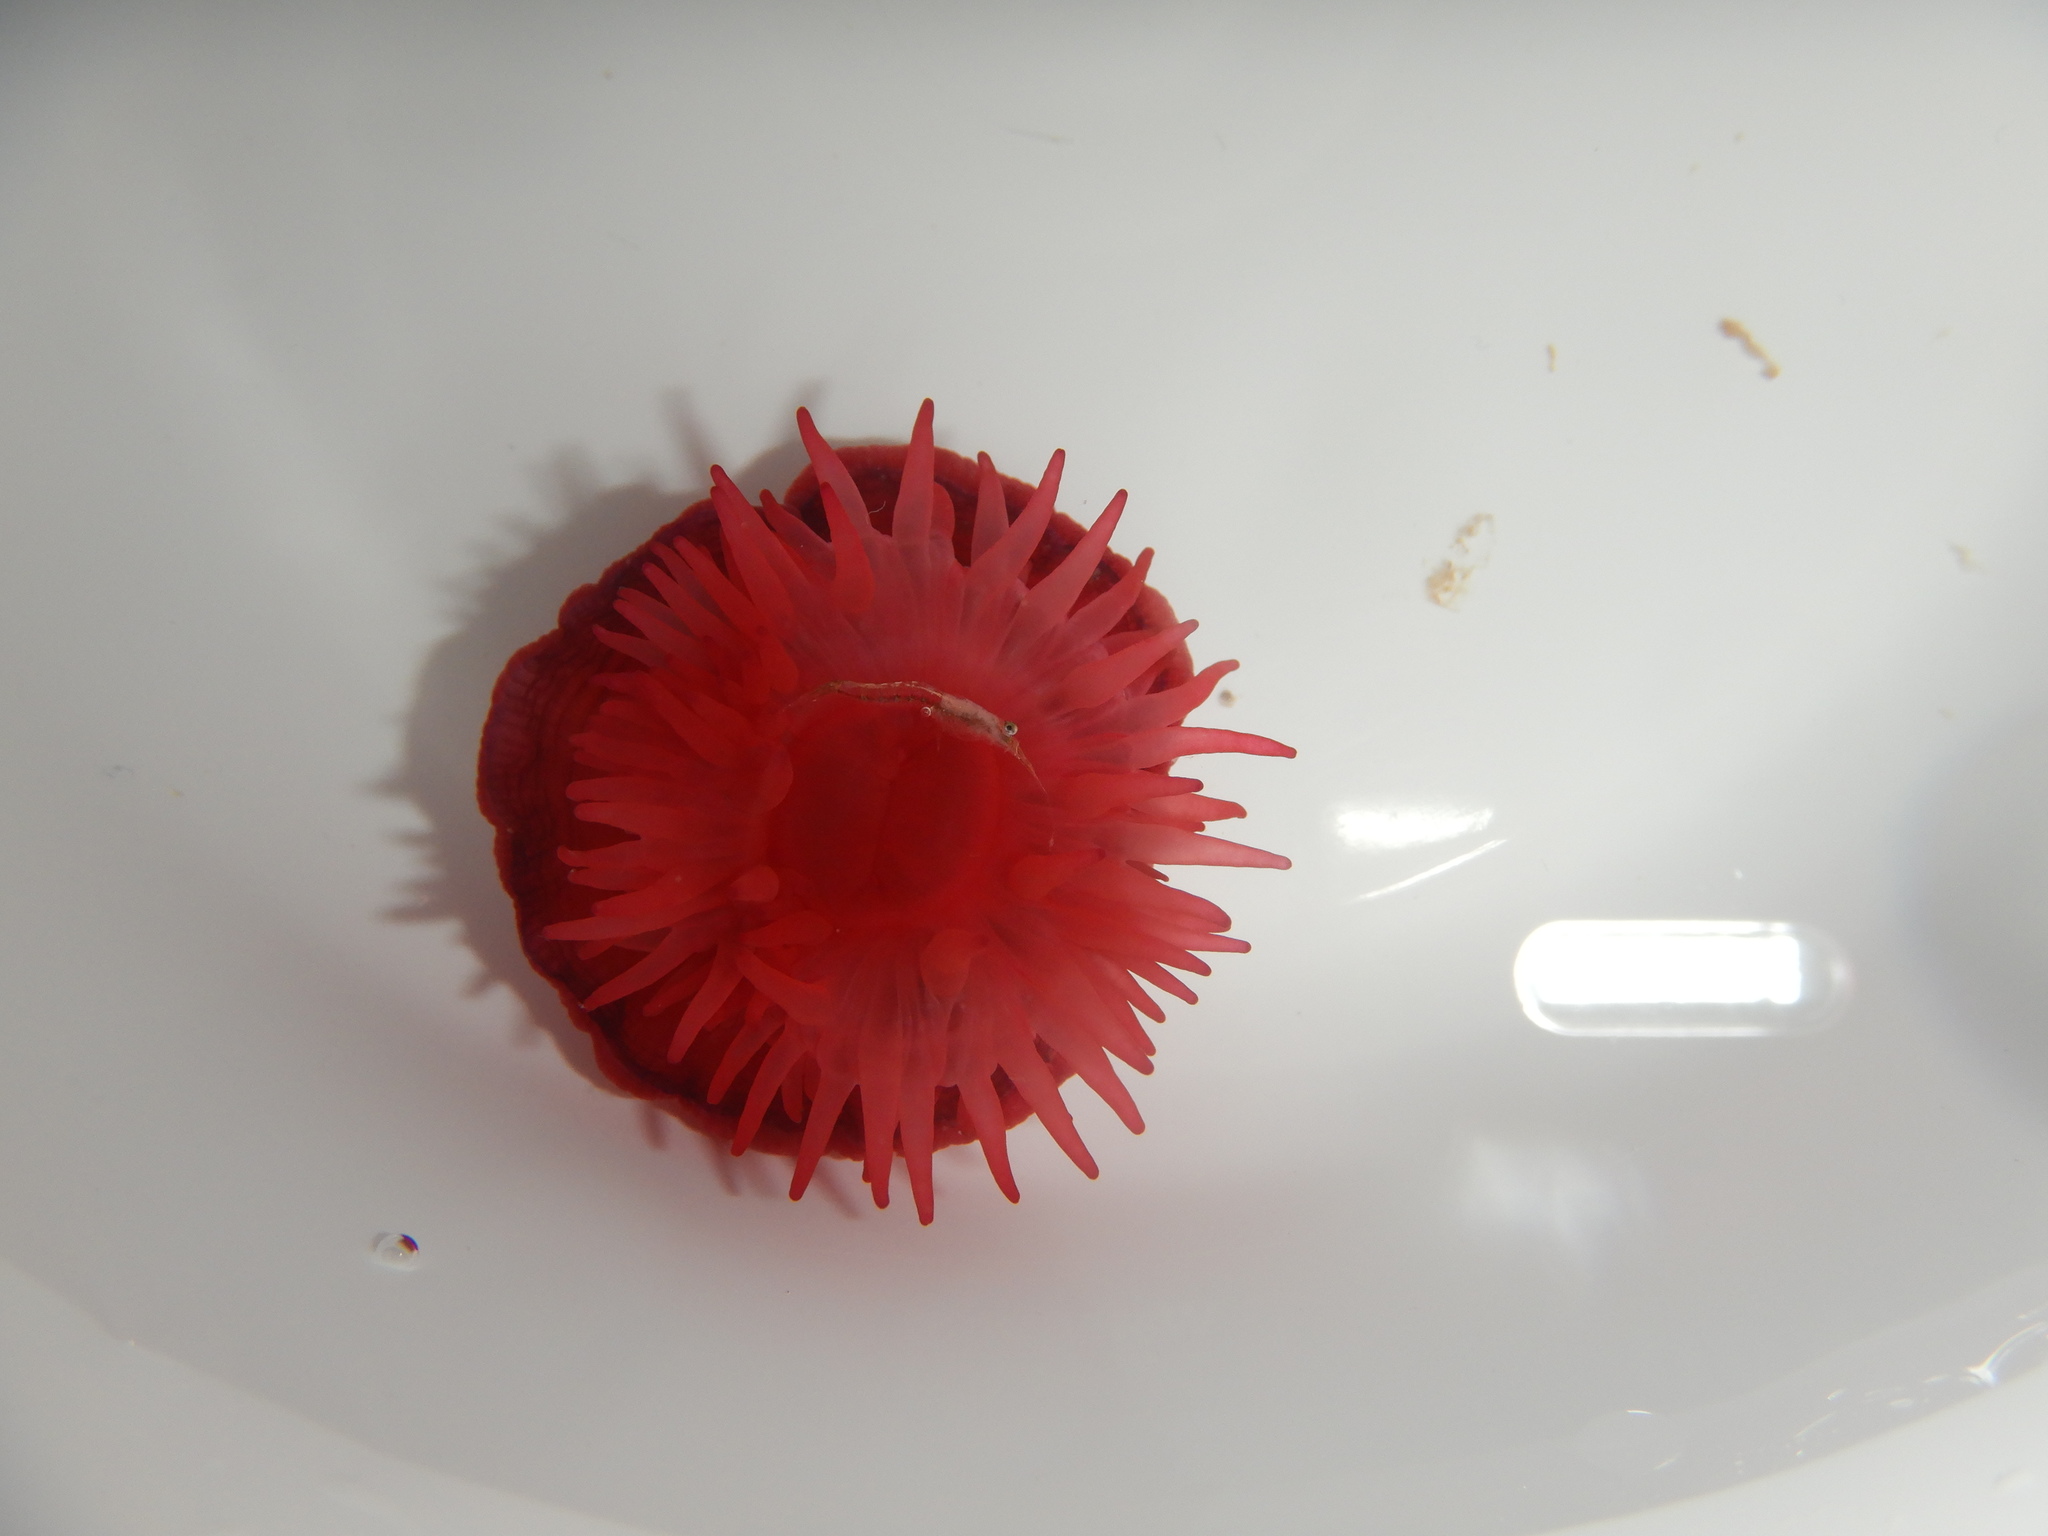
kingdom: Animalia
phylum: Cnidaria
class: Anthozoa
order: Actiniaria
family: Actiniidae
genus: Actinia
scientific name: Actinia mediterranea
